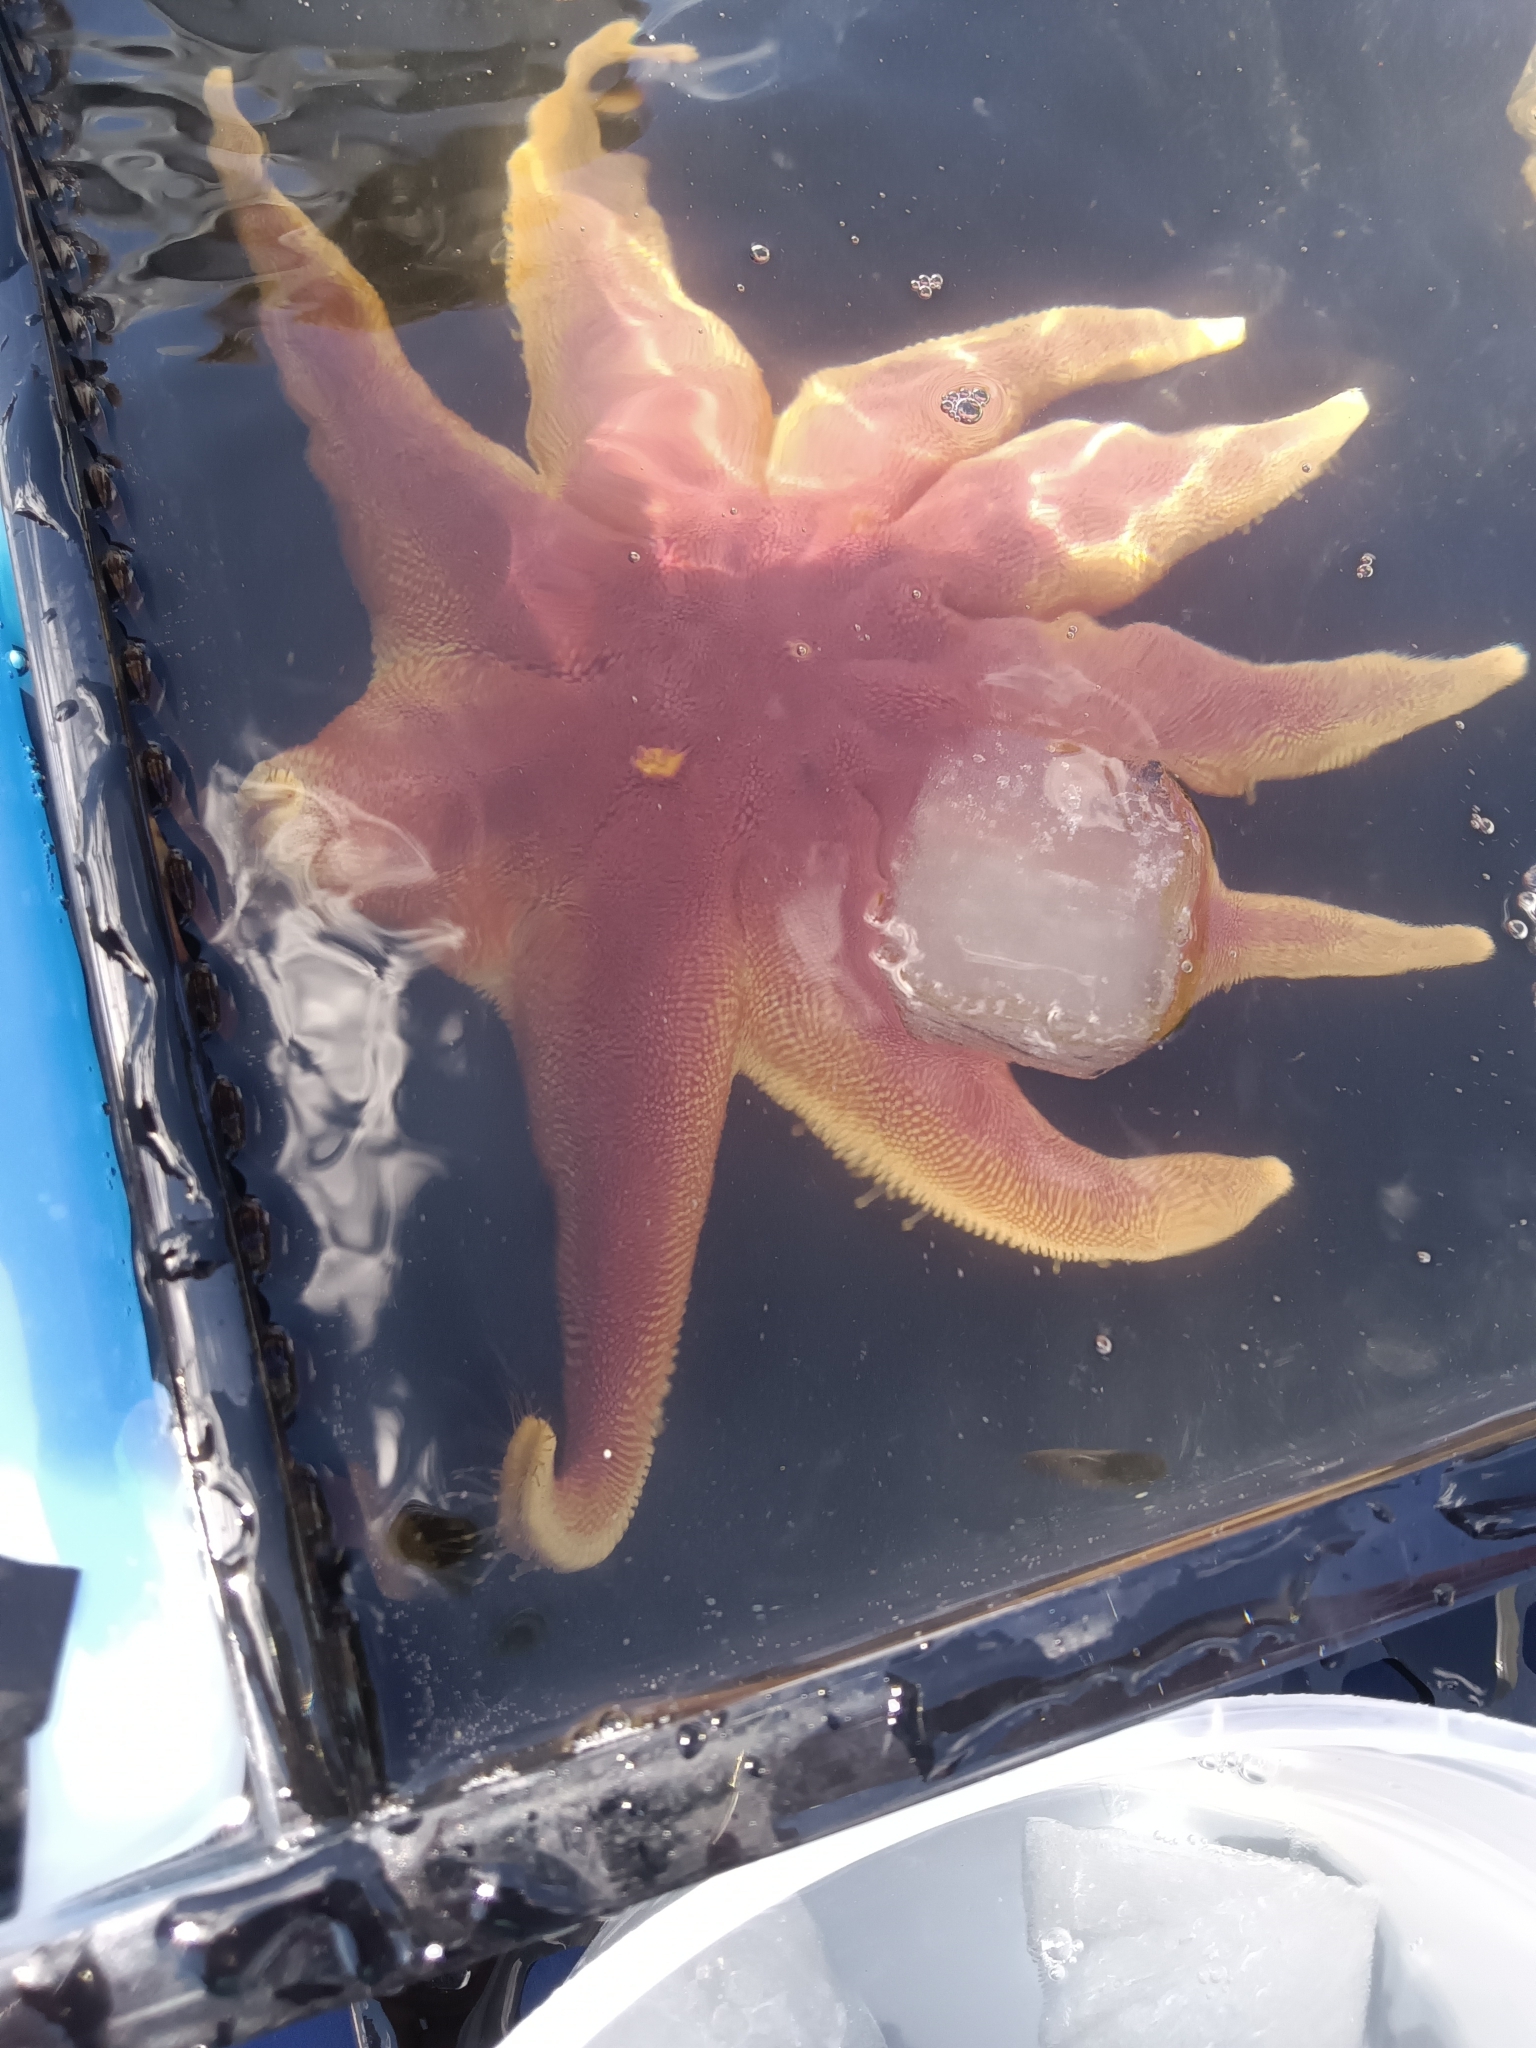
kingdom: Animalia
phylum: Echinodermata
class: Asteroidea
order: Valvatida
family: Solasteridae
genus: Solaster
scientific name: Solaster endeca
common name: Purple sun star
